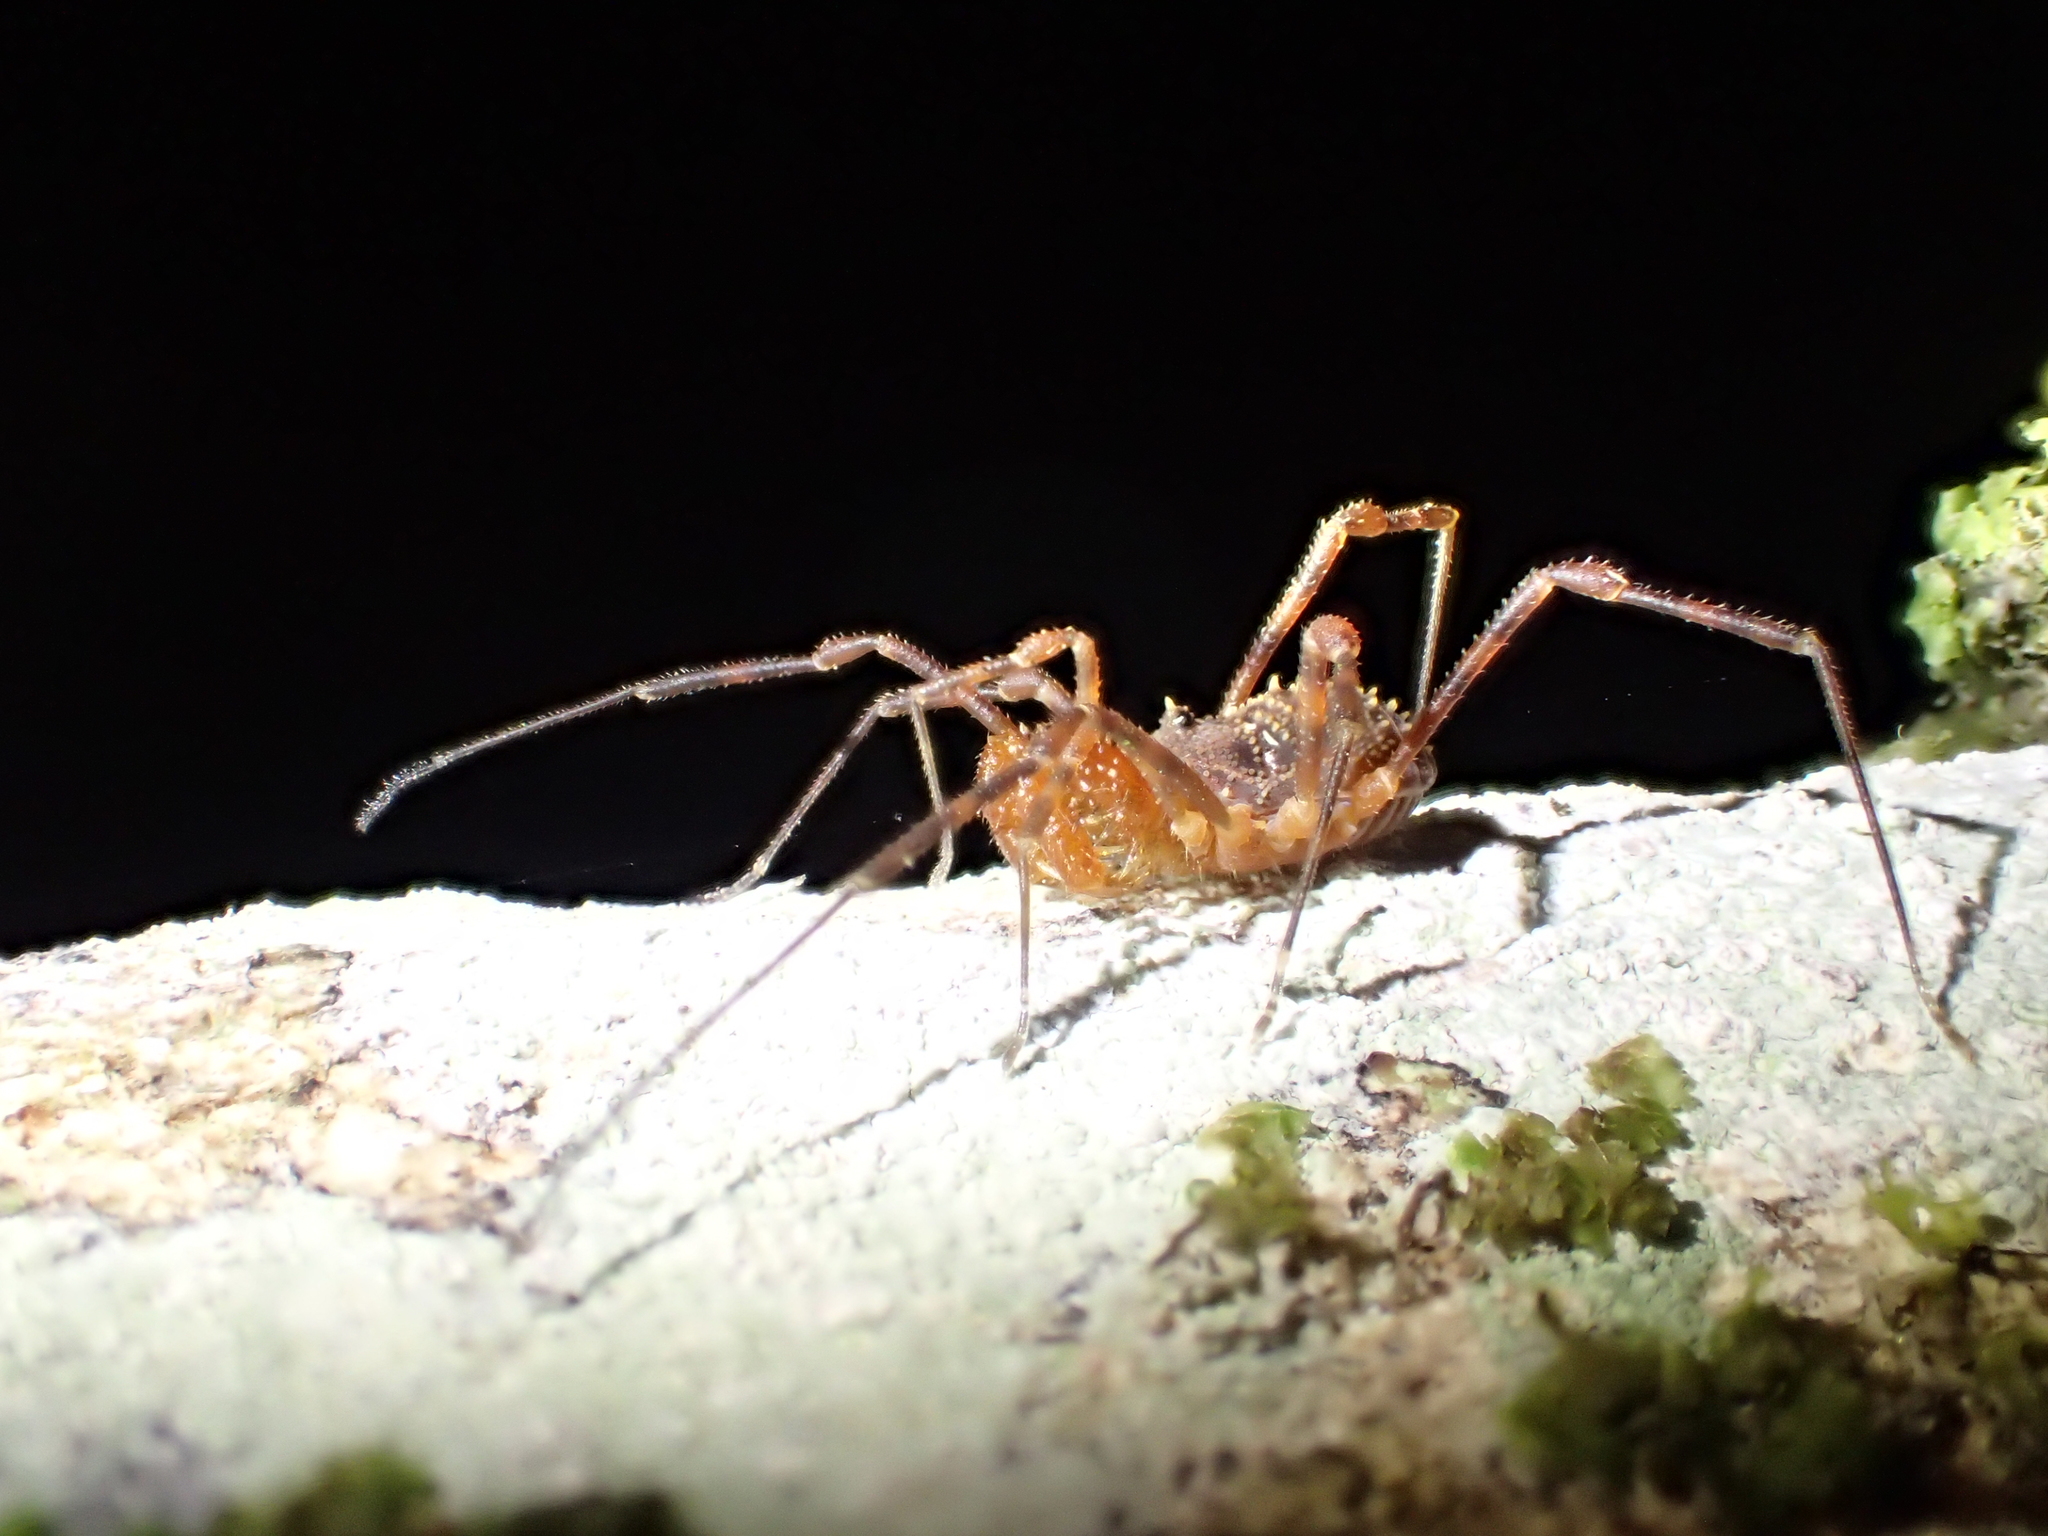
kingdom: Animalia
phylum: Arthropoda
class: Arachnida
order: Opiliones
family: Triaenonychidae
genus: Prasma
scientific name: Prasma tuberculata
